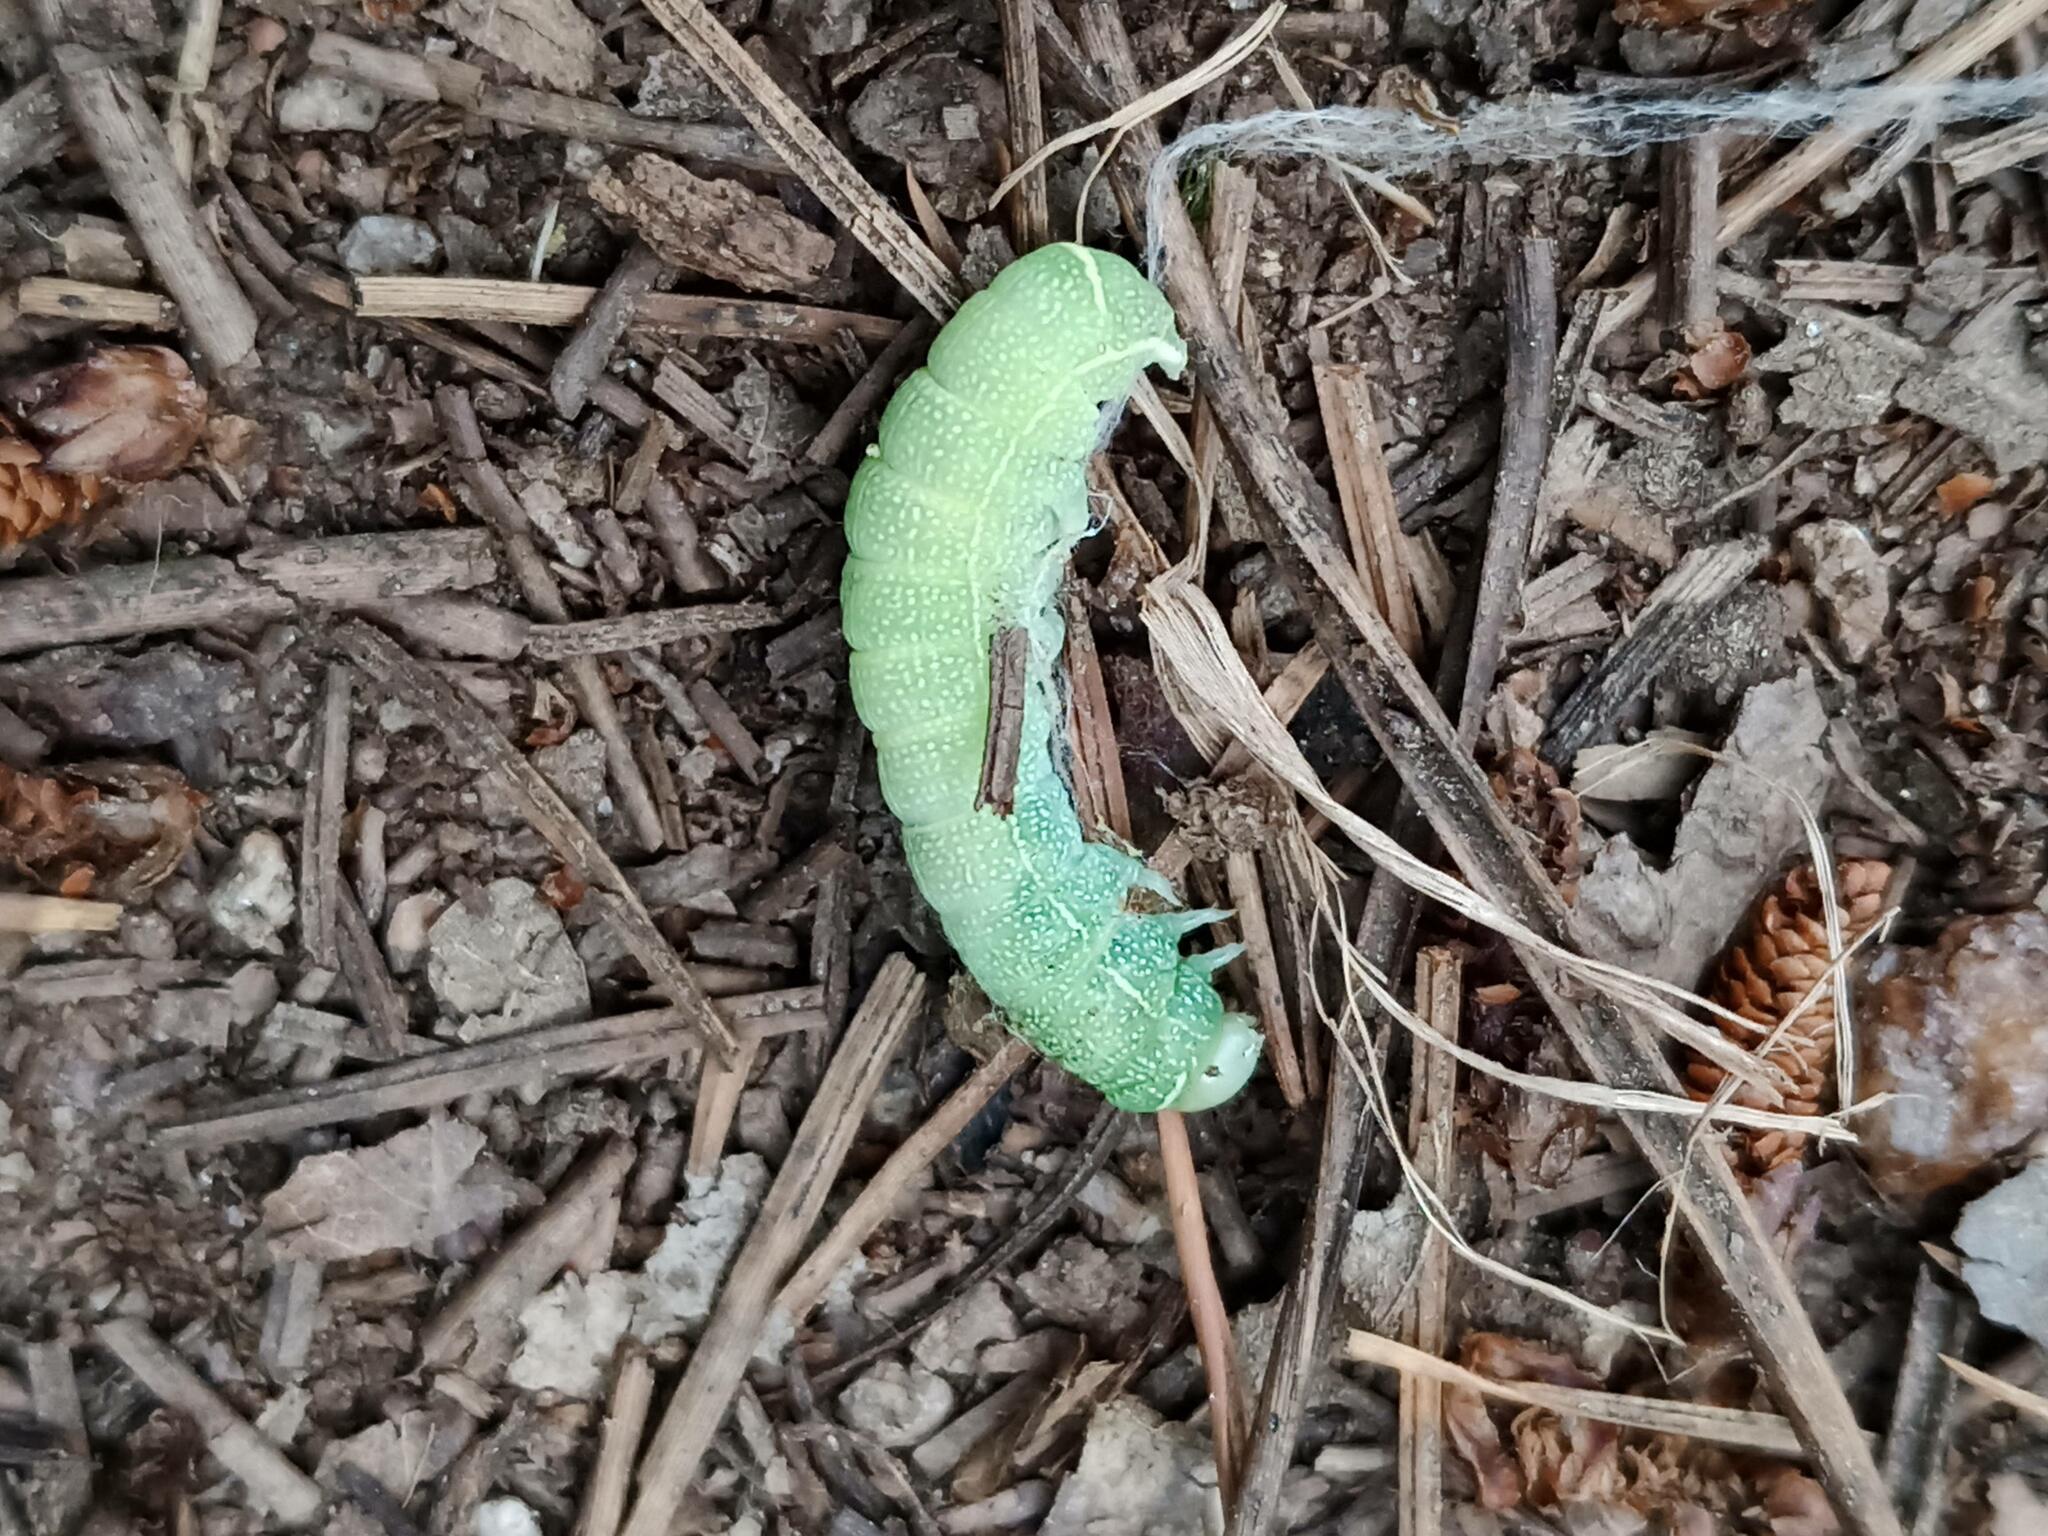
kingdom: Animalia
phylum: Arthropoda
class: Insecta
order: Lepidoptera
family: Noctuidae
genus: Orthosia
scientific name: Orthosia cerasi
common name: Common quaker
